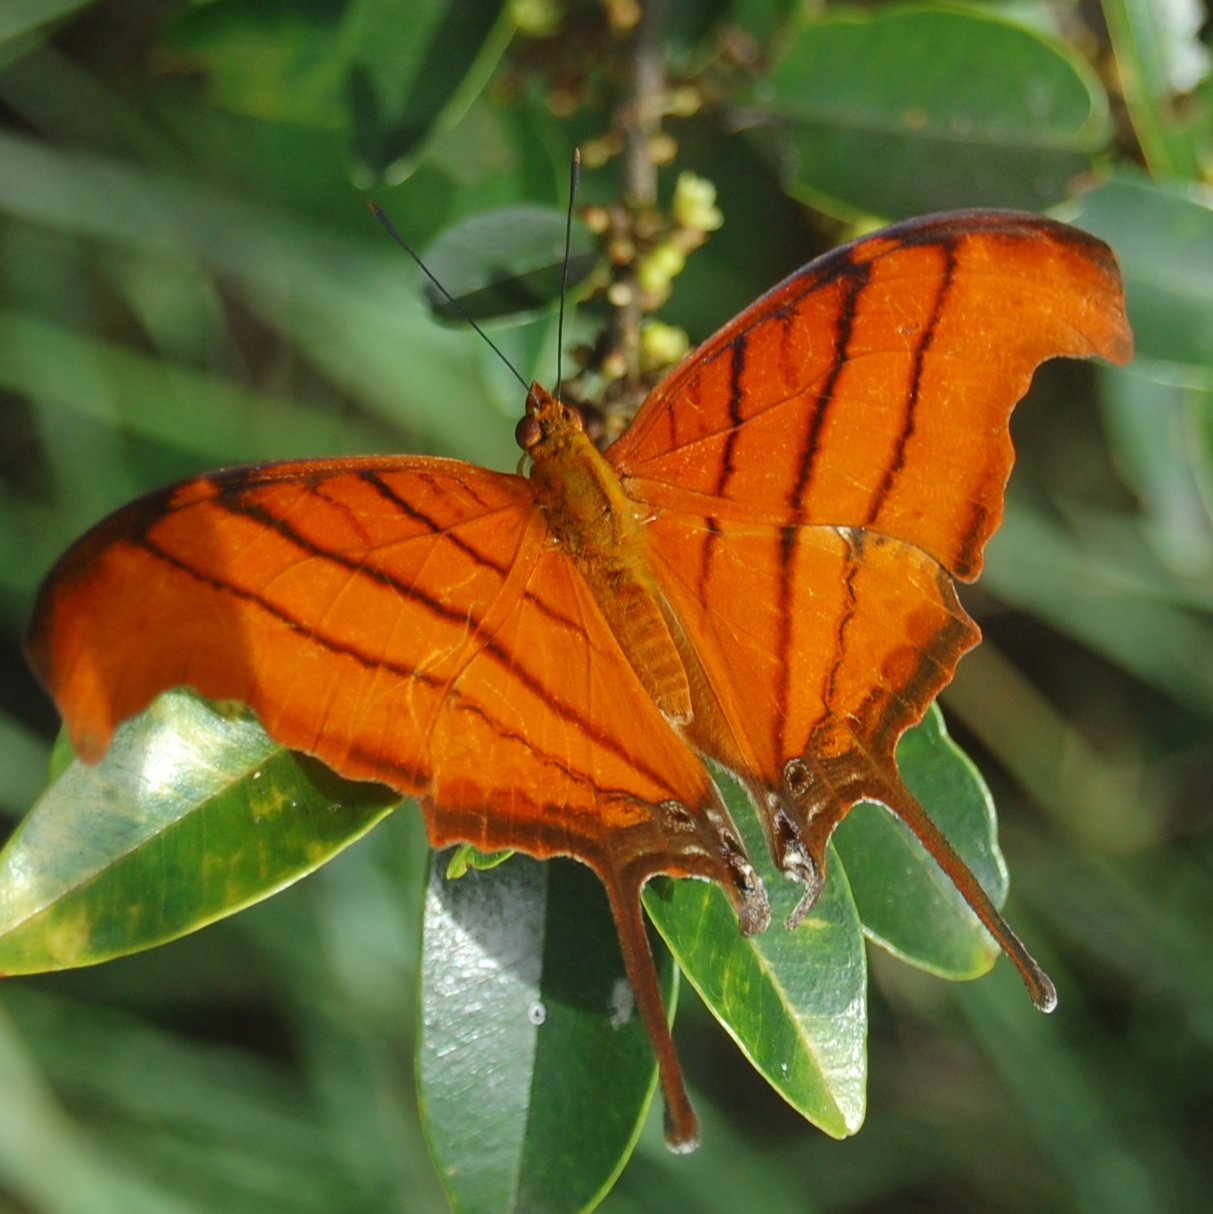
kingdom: Animalia
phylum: Arthropoda
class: Insecta
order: Lepidoptera
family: Nymphalidae
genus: Marpesia
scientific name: Marpesia petreus
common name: Red dagger wing
